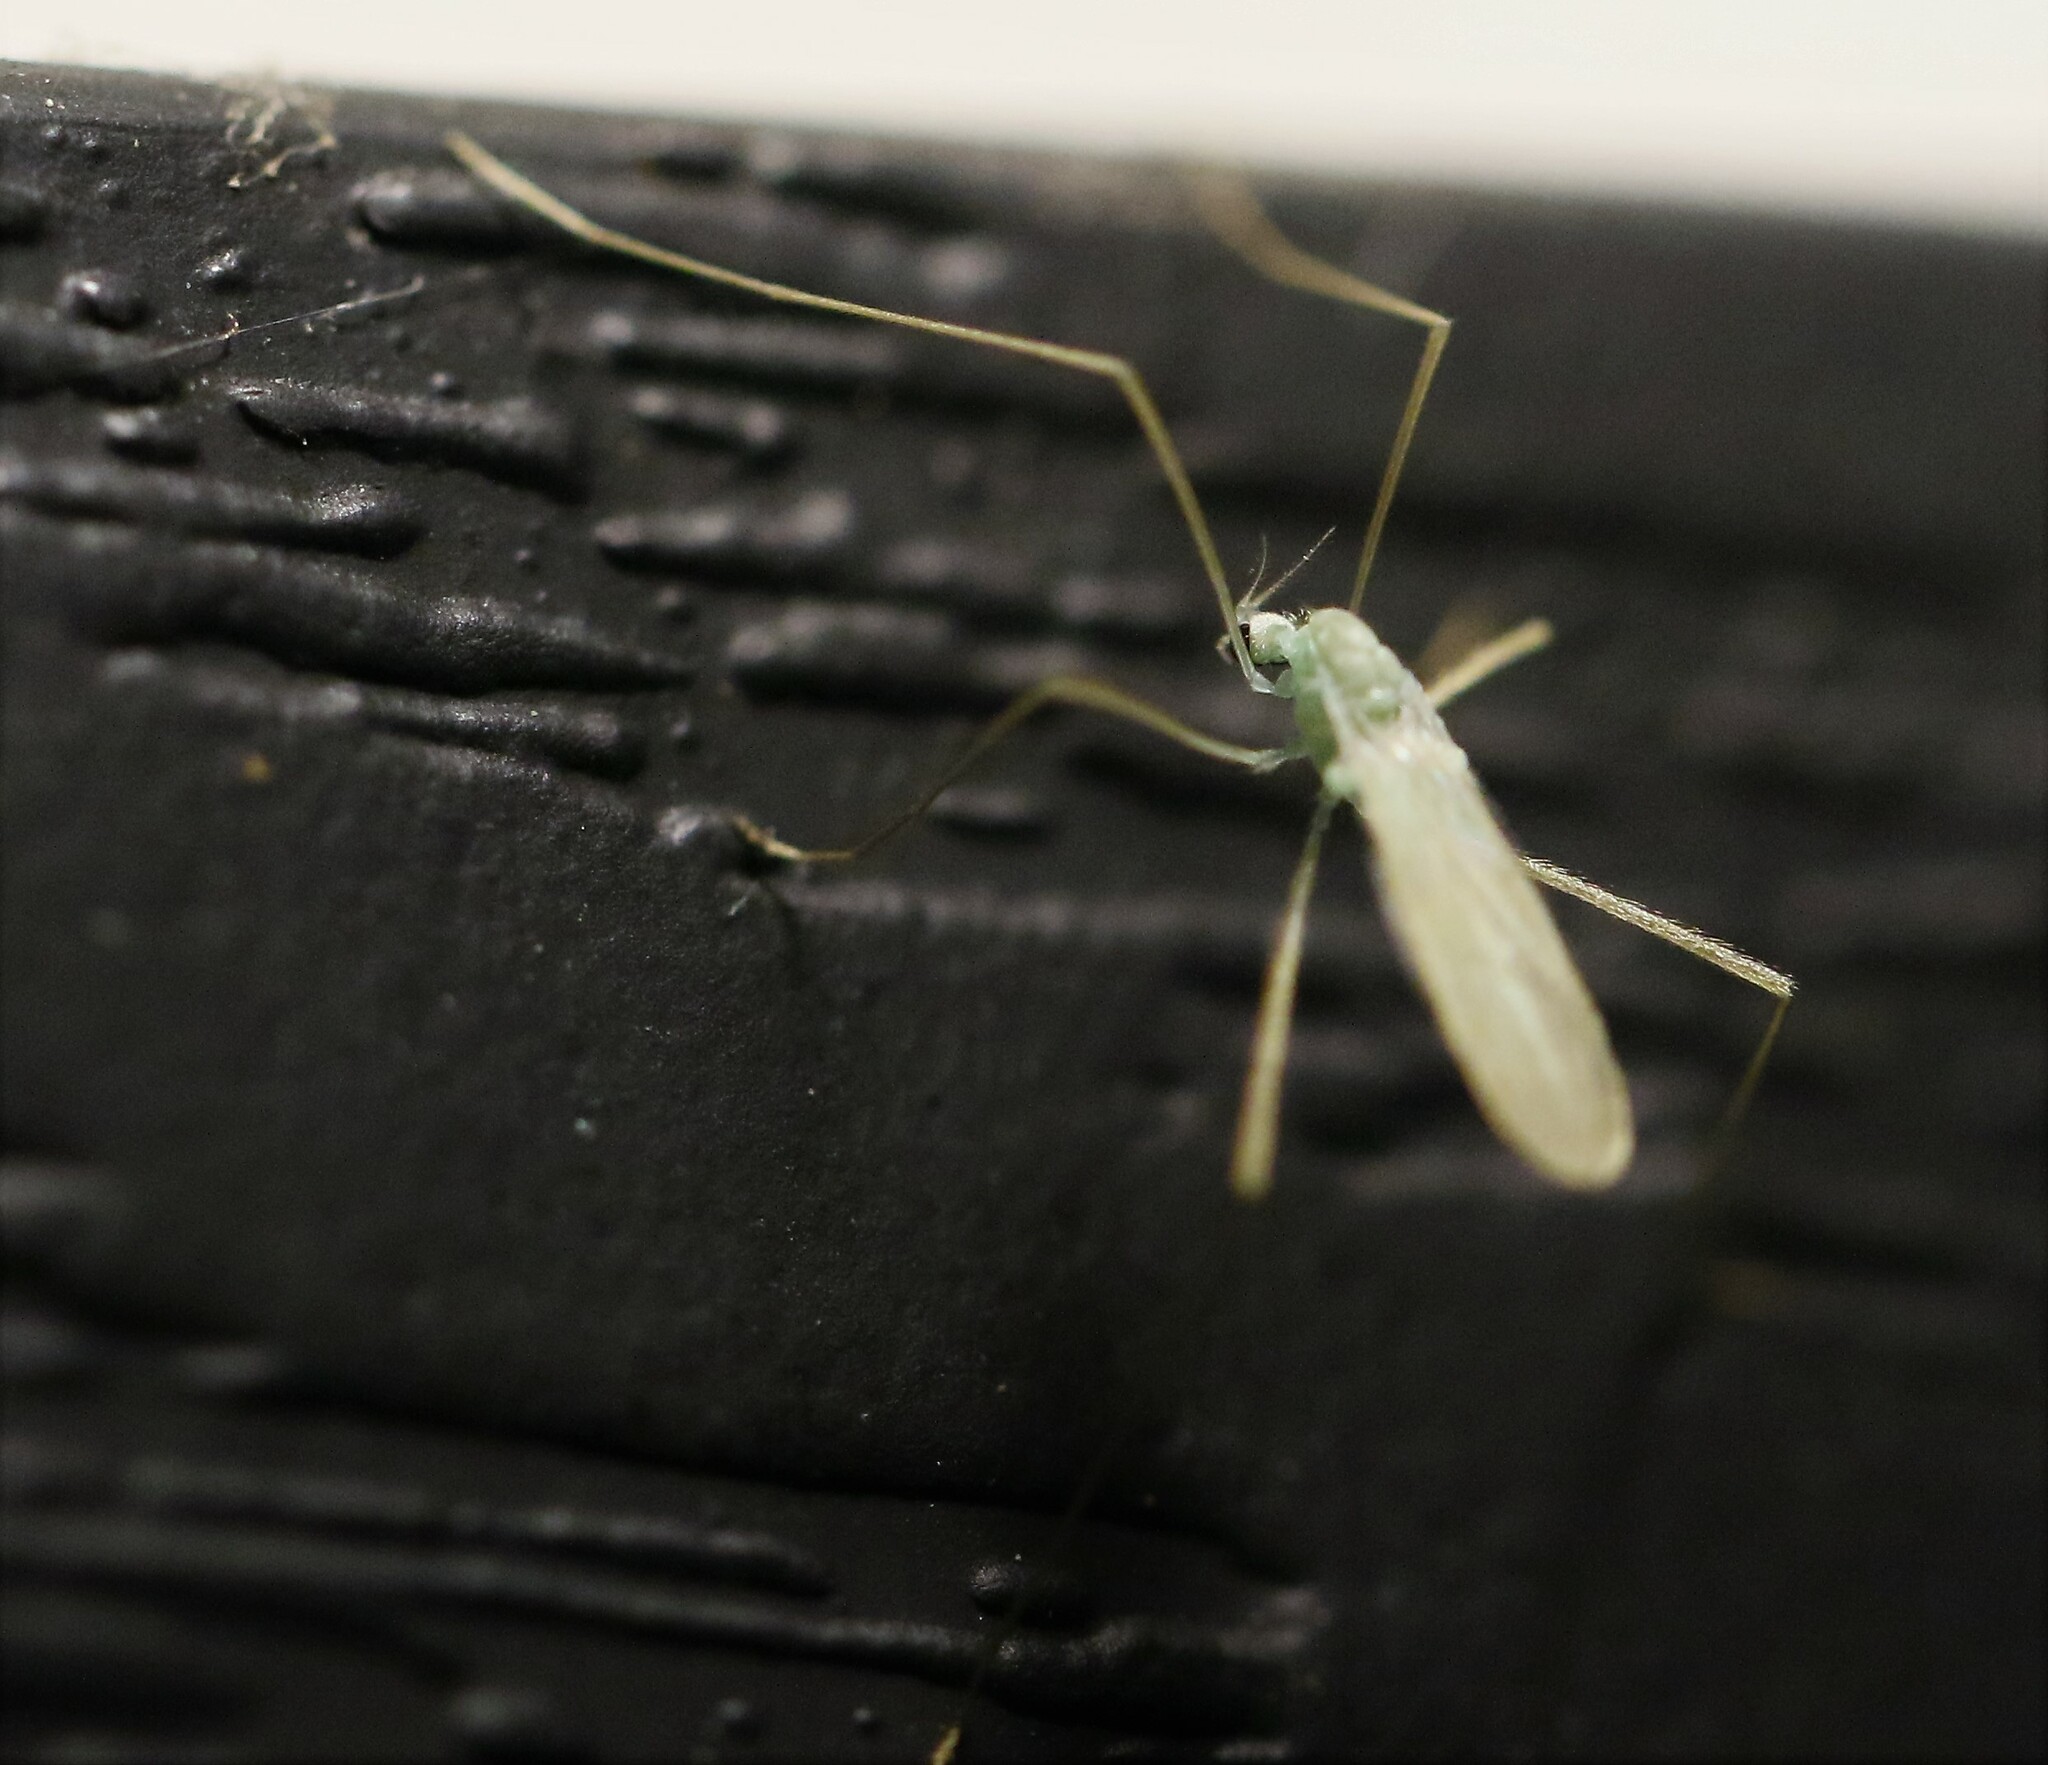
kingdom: Animalia
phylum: Arthropoda
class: Insecta
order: Diptera
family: Limoniidae
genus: Erioptera
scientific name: Erioptera
